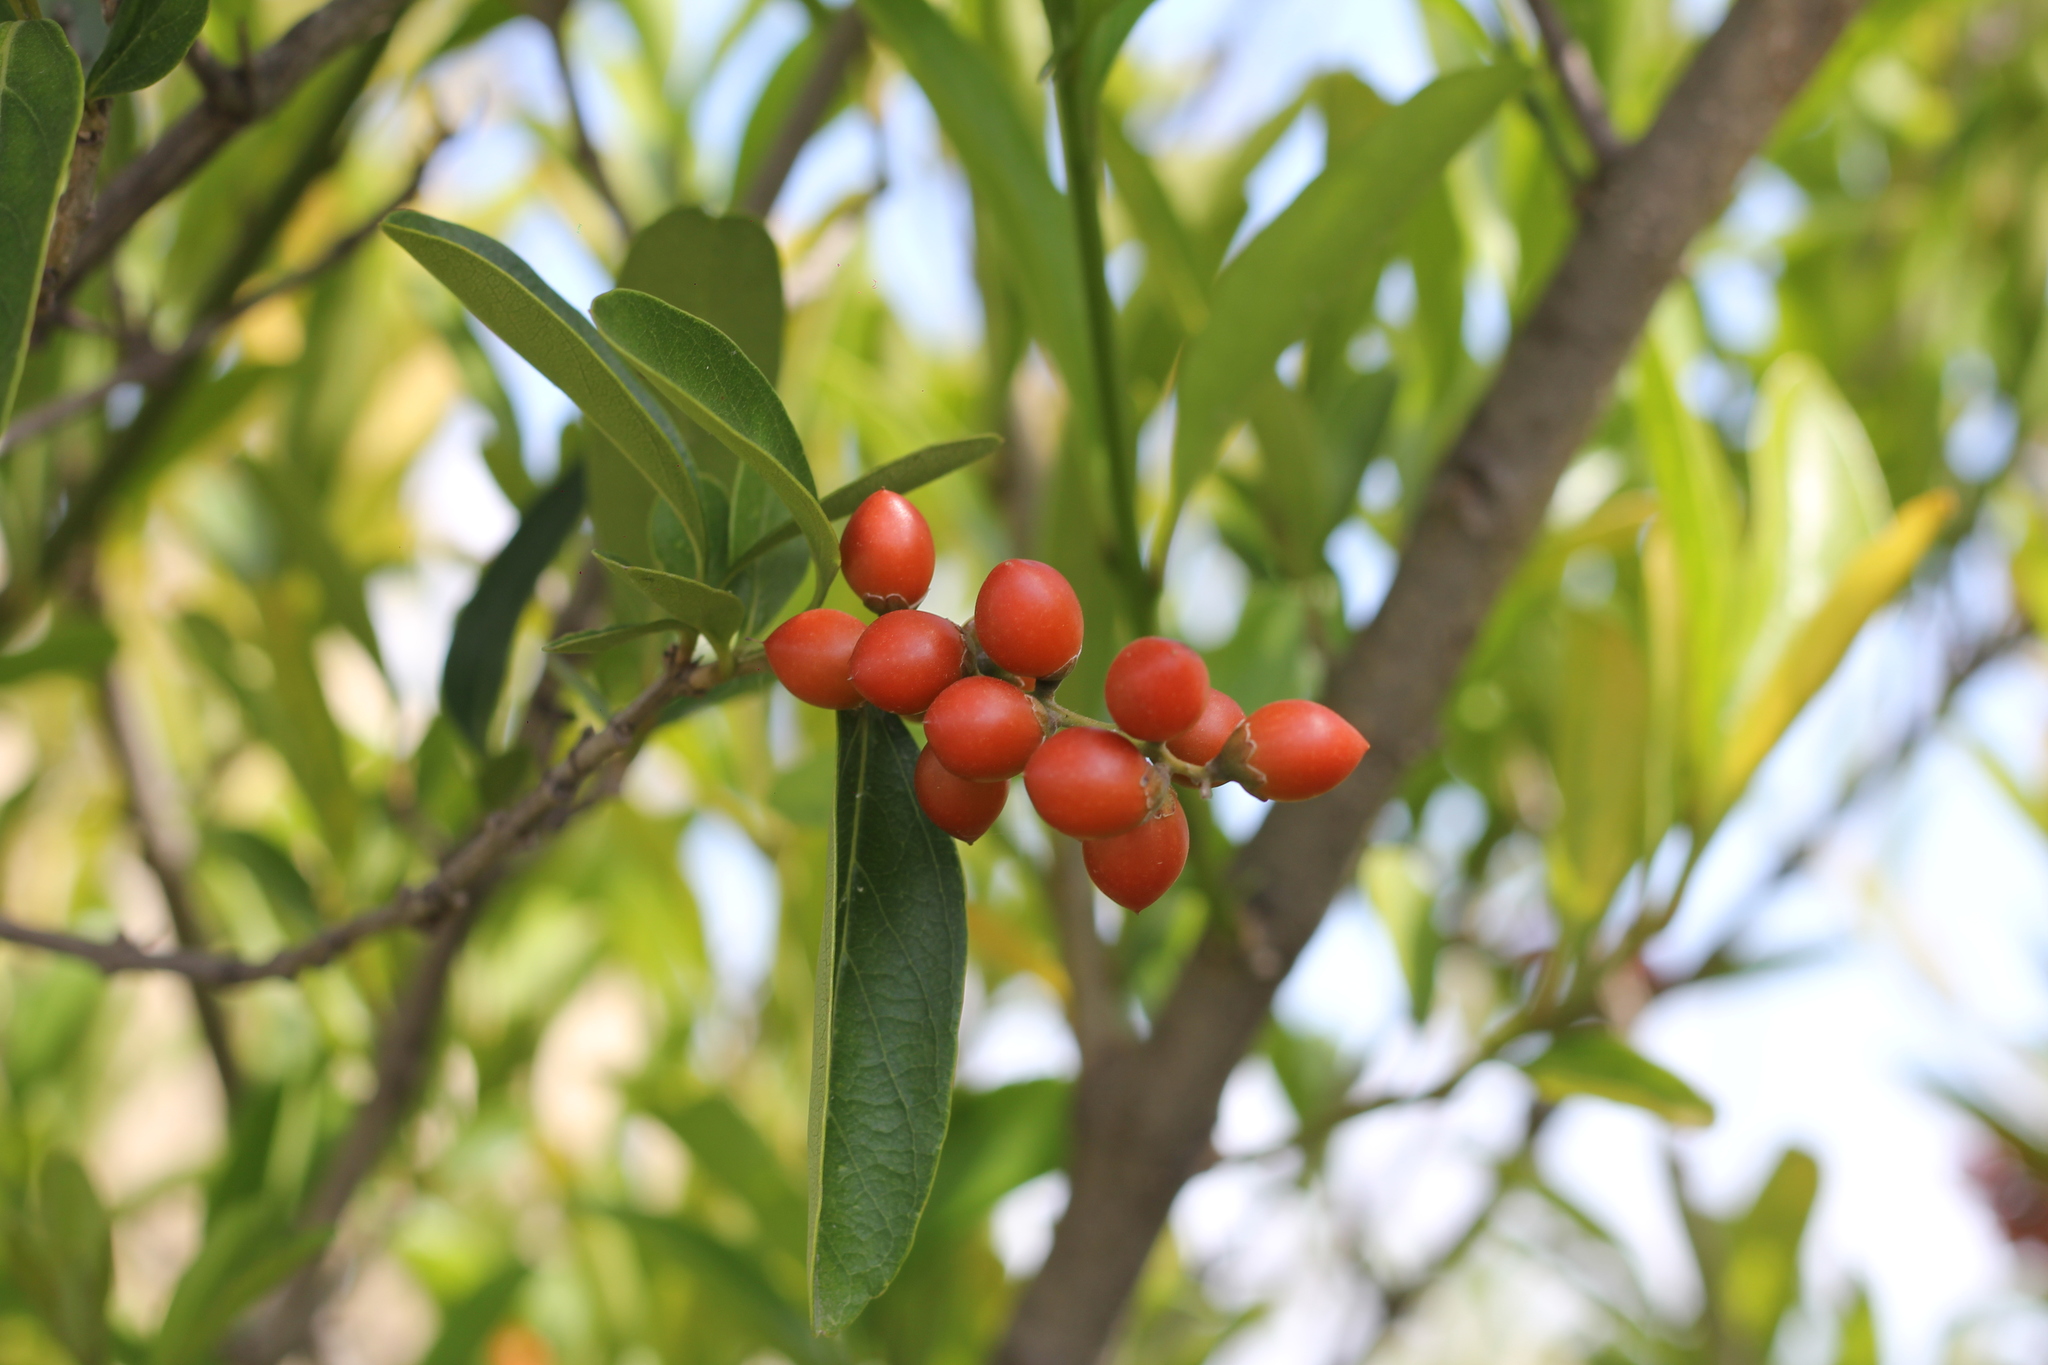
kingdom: Plantae
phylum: Tracheophyta
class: Magnoliopsida
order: Lamiales
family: Verbenaceae
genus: Citharexylum
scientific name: Citharexylum montevidense
